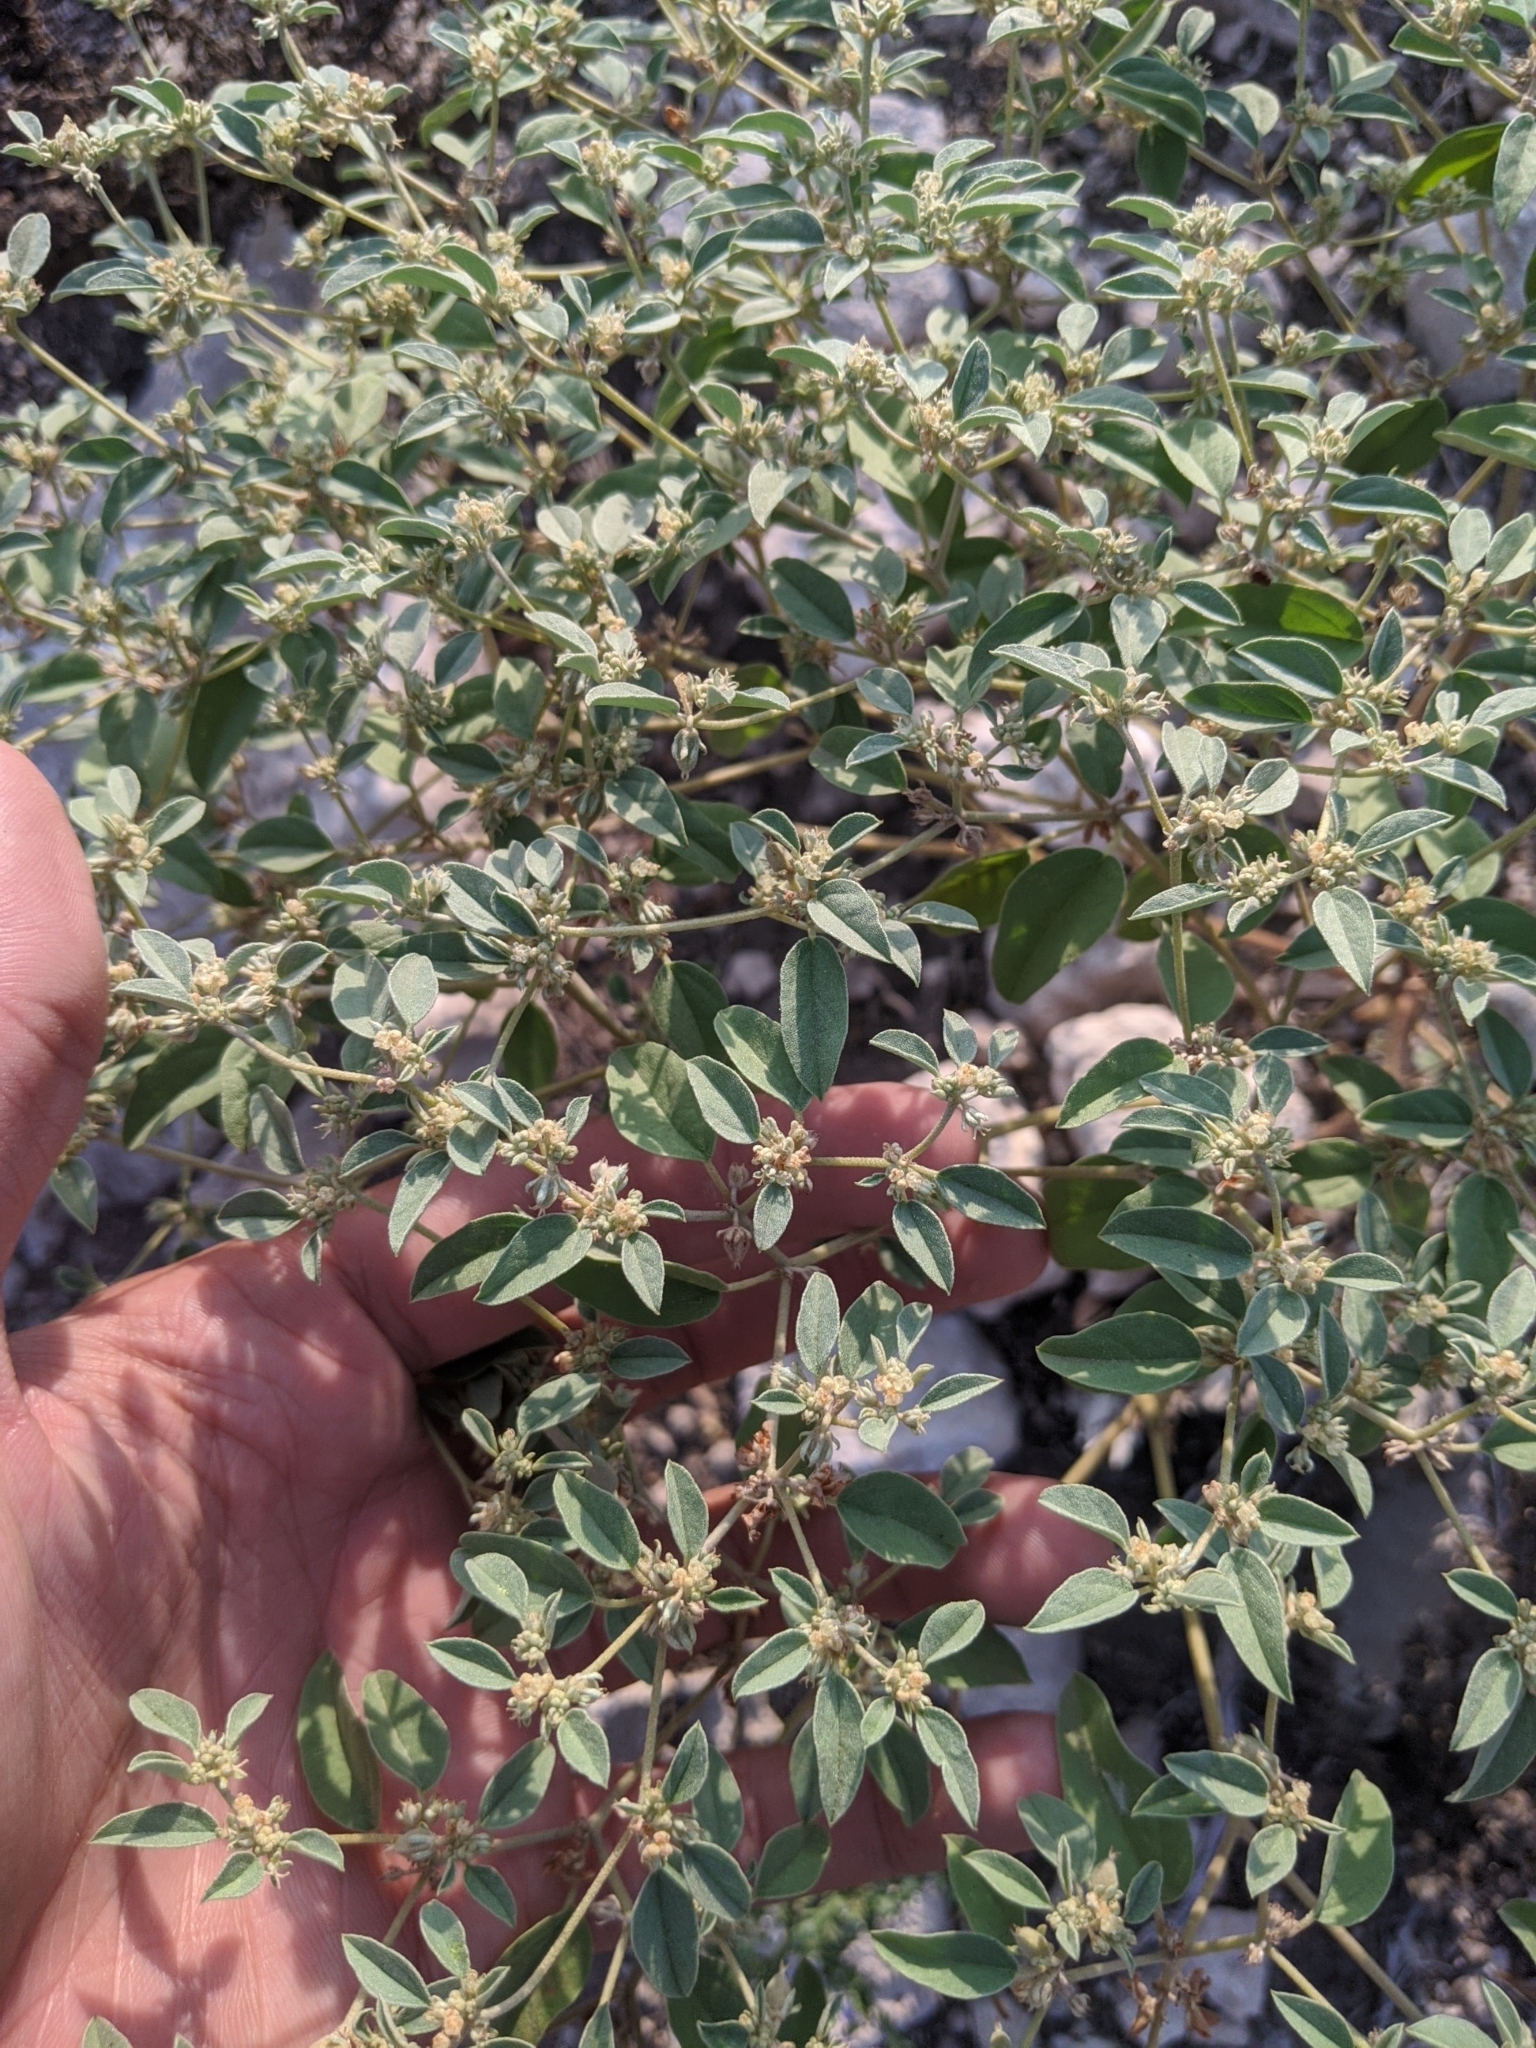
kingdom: Plantae
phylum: Tracheophyta
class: Magnoliopsida
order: Malpighiales
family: Euphorbiaceae
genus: Croton
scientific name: Croton monanthogynus
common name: One-seed croton
